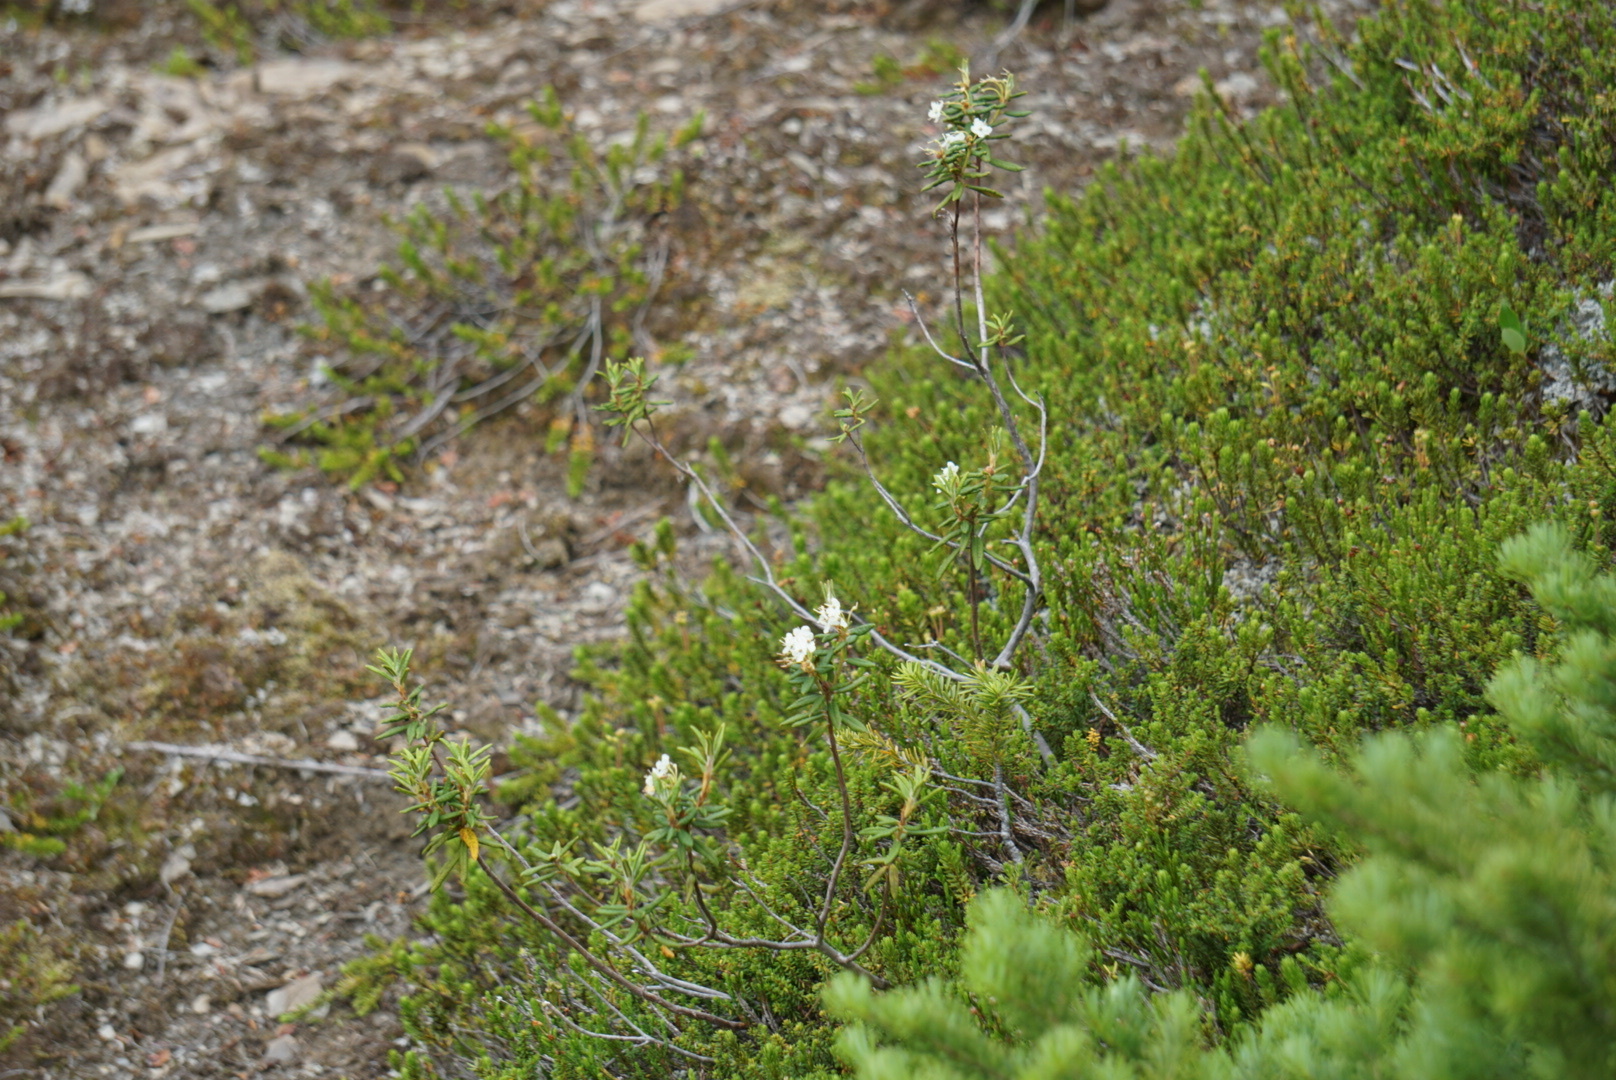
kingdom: Plantae
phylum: Tracheophyta
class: Magnoliopsida
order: Ericales
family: Ericaceae
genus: Rhododendron
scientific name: Rhododendron groenlandicum
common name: Bog labrador tea
